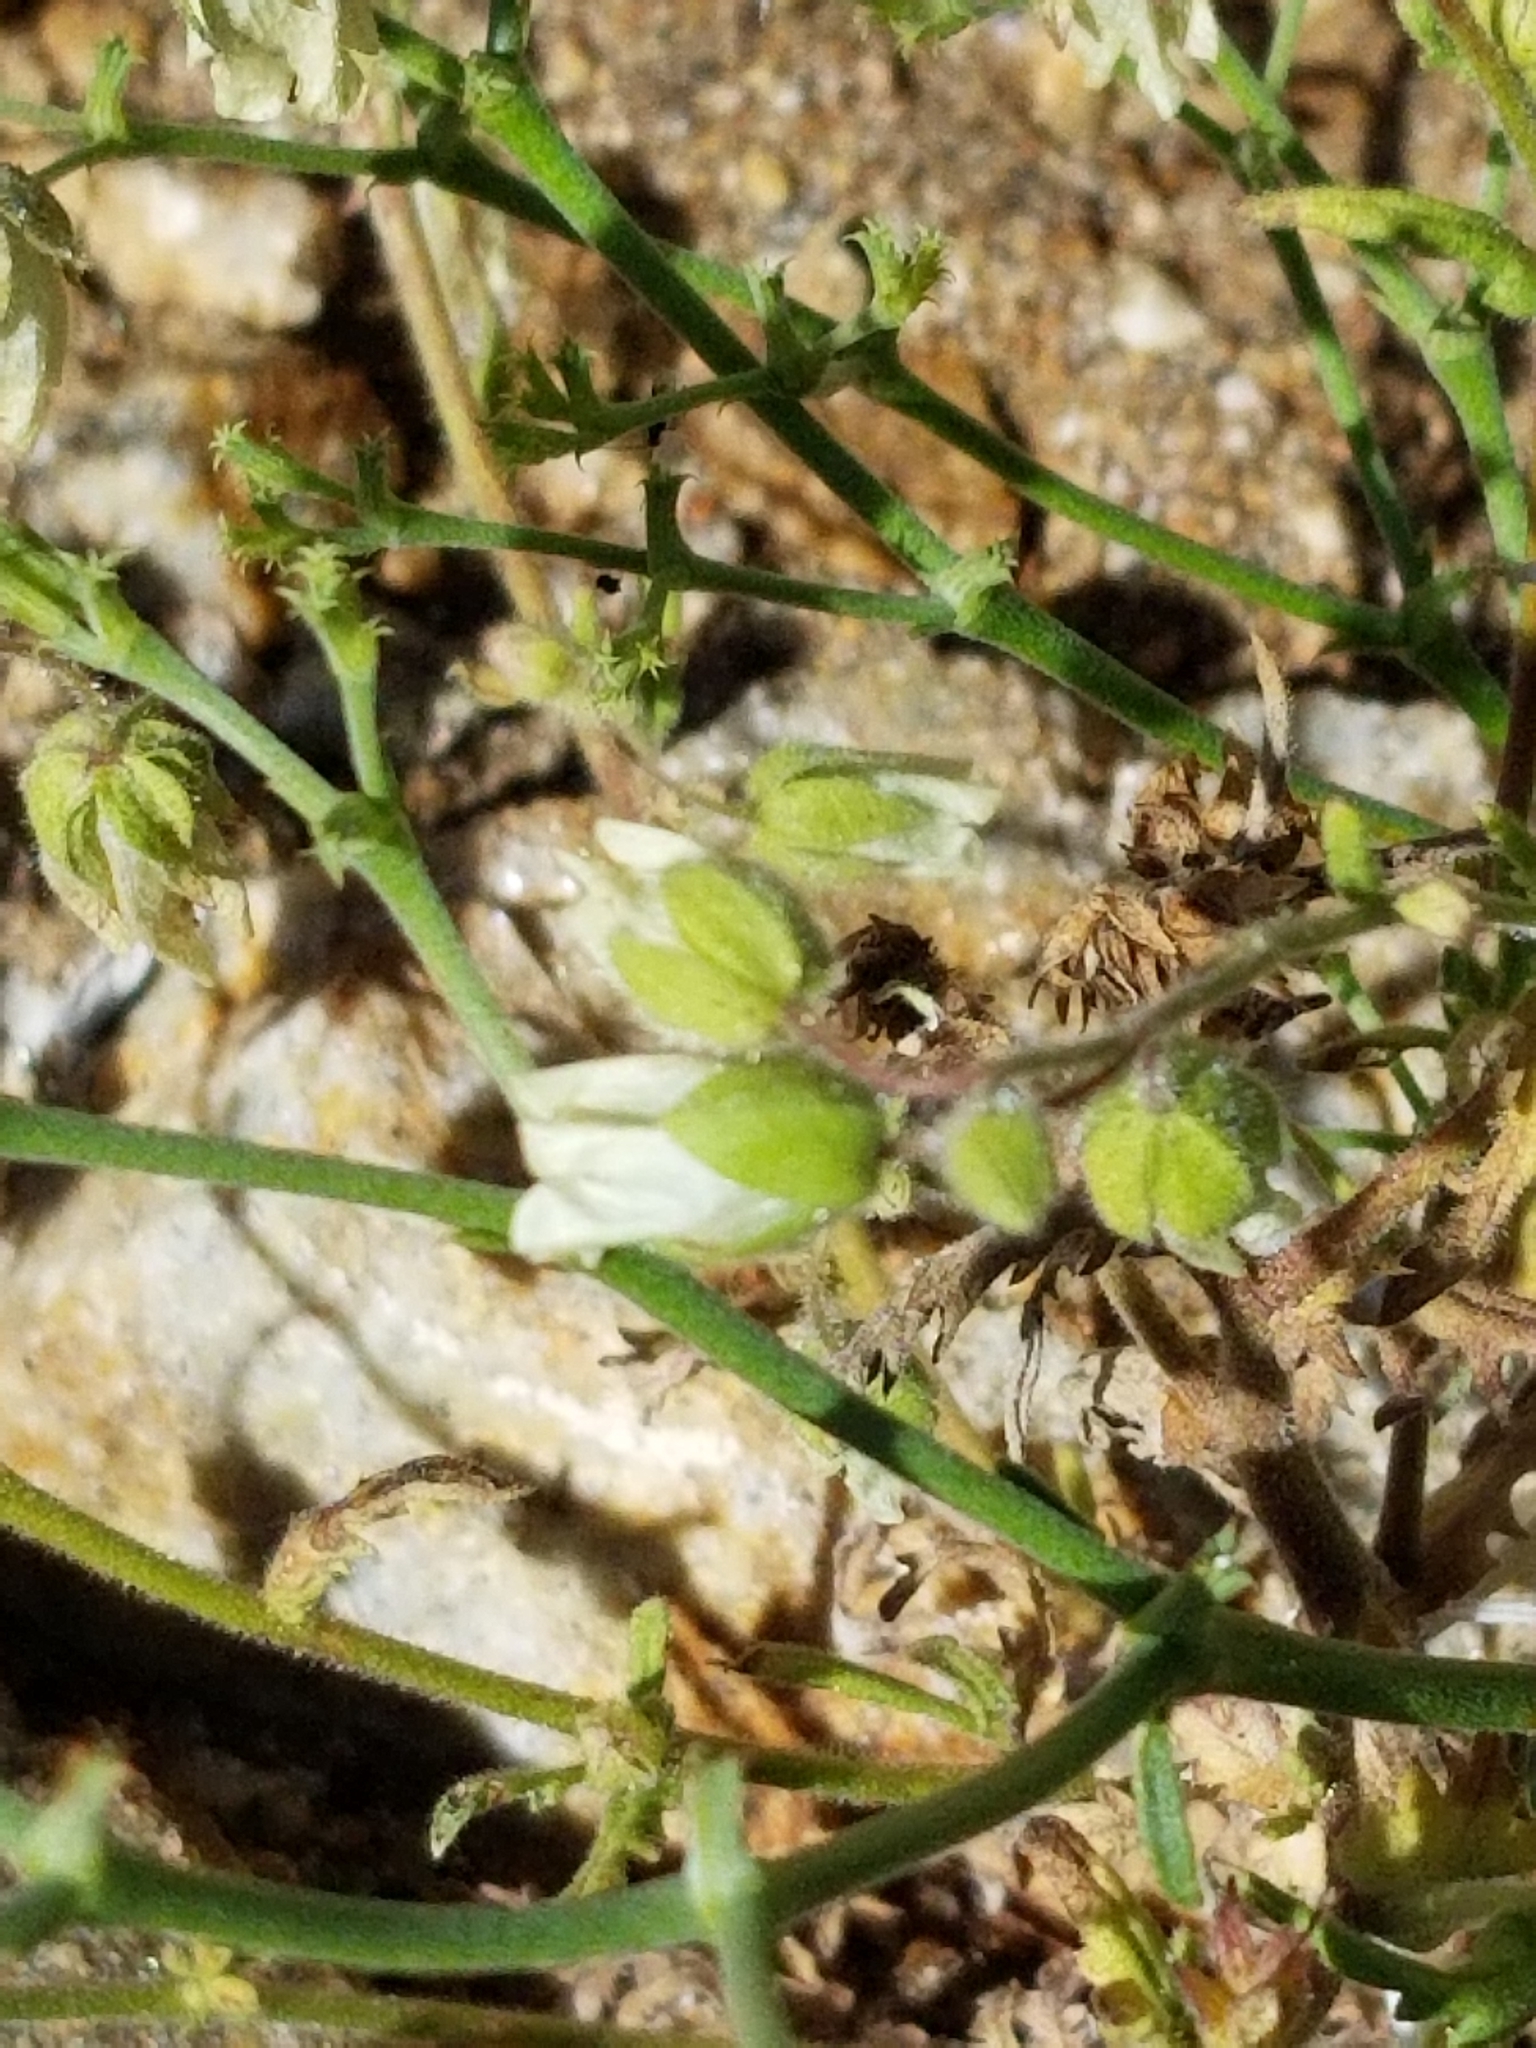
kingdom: Plantae
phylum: Tracheophyta
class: Magnoliopsida
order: Boraginales
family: Hydrophyllaceae
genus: Emmenanthe
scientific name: Emmenanthe penduliflora
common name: Whispering-bells
